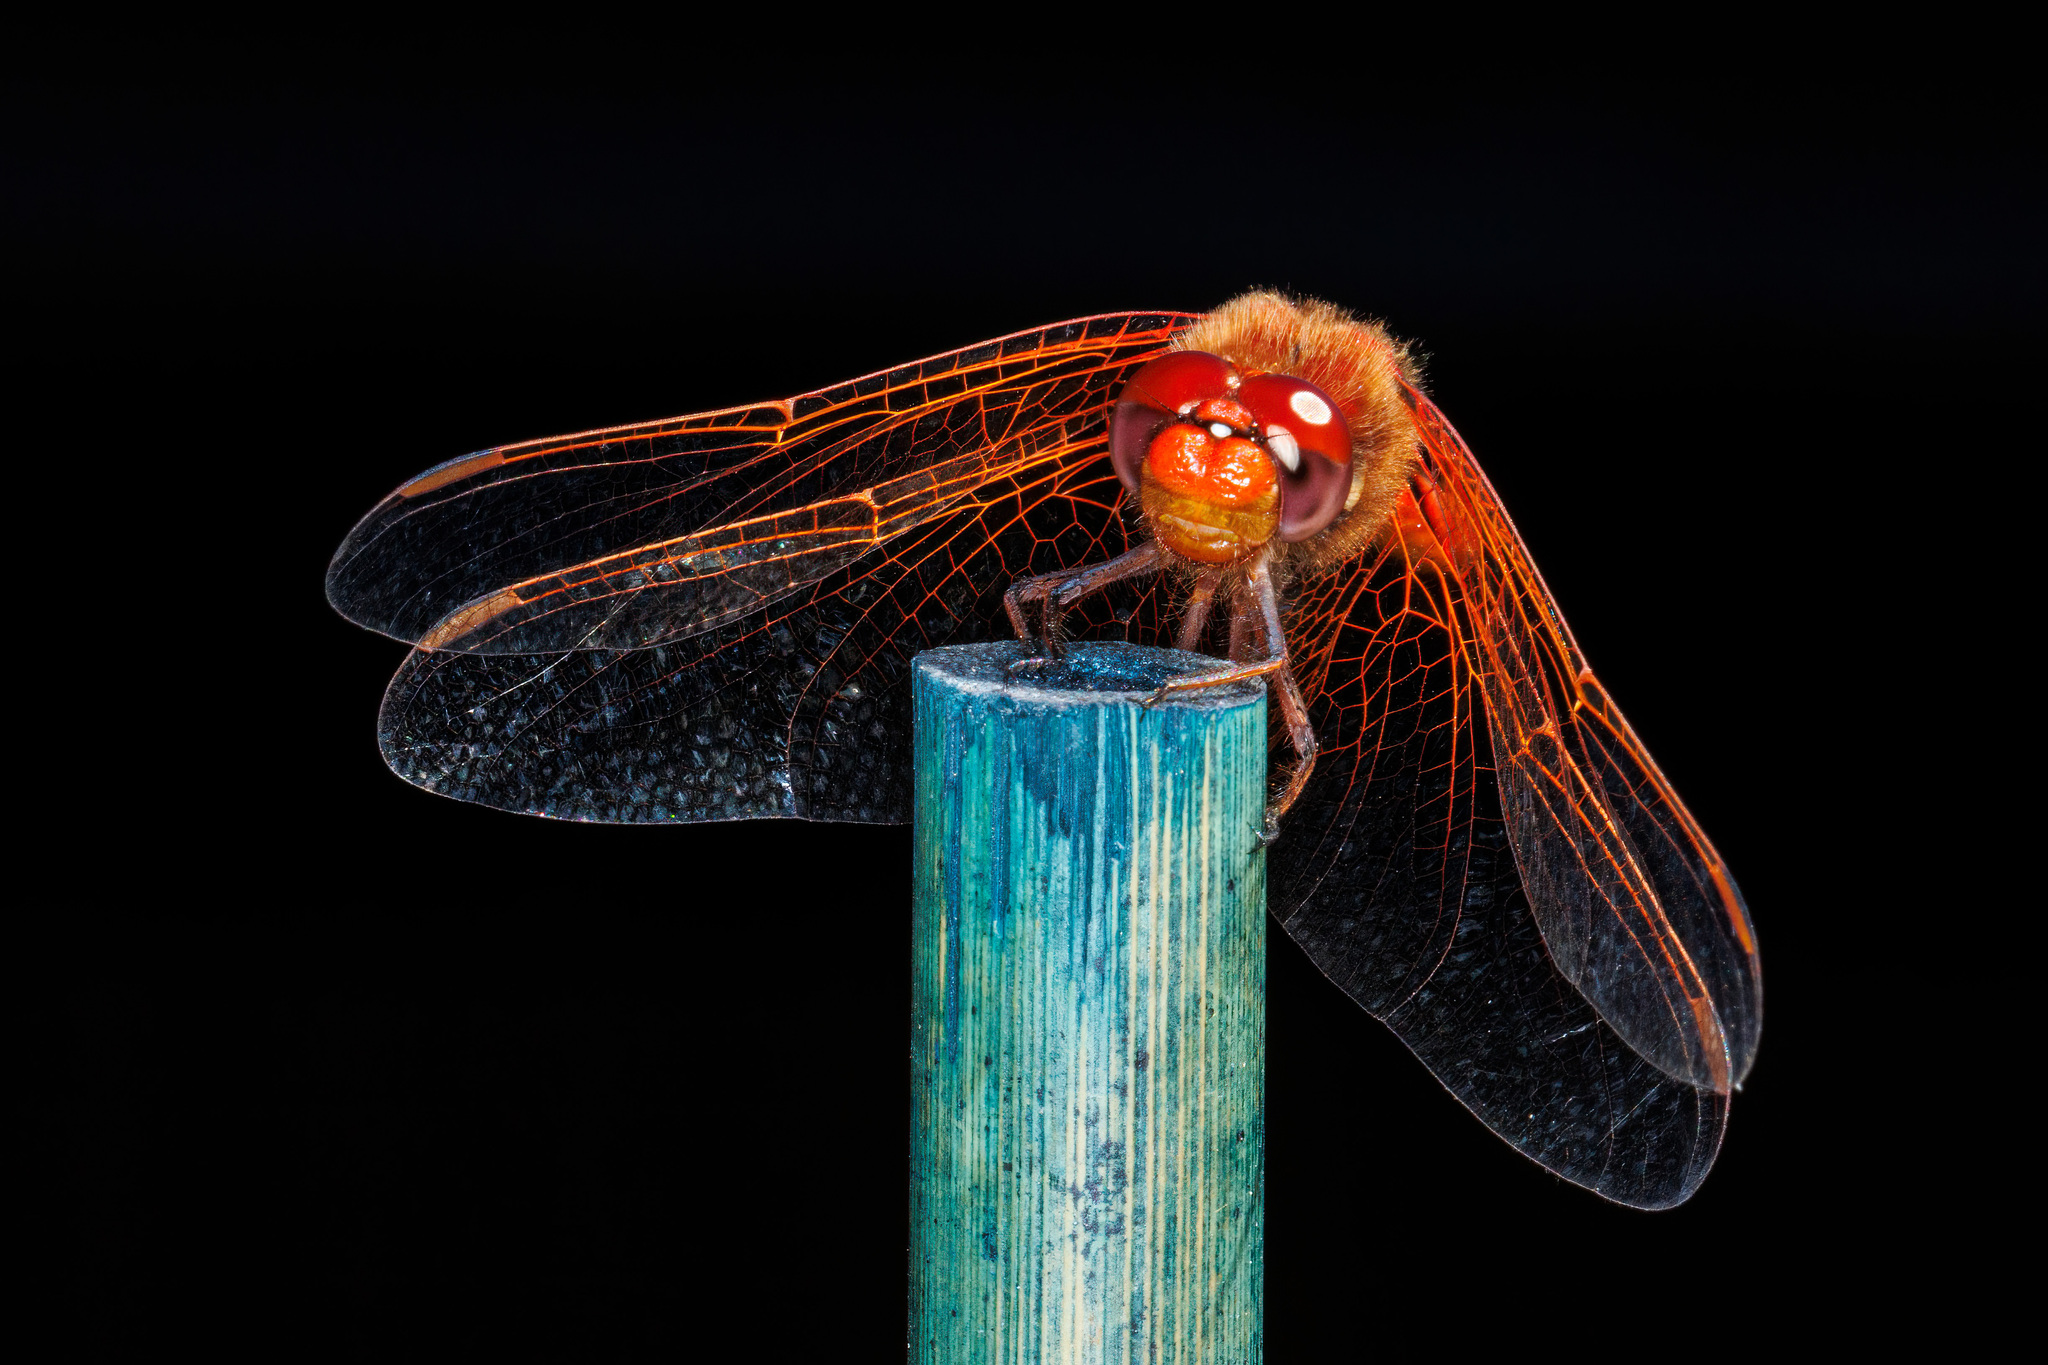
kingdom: Animalia
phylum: Arthropoda
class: Insecta
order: Odonata
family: Libellulidae
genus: Sympetrum
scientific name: Sympetrum illotum
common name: Cardinal meadowhawk
